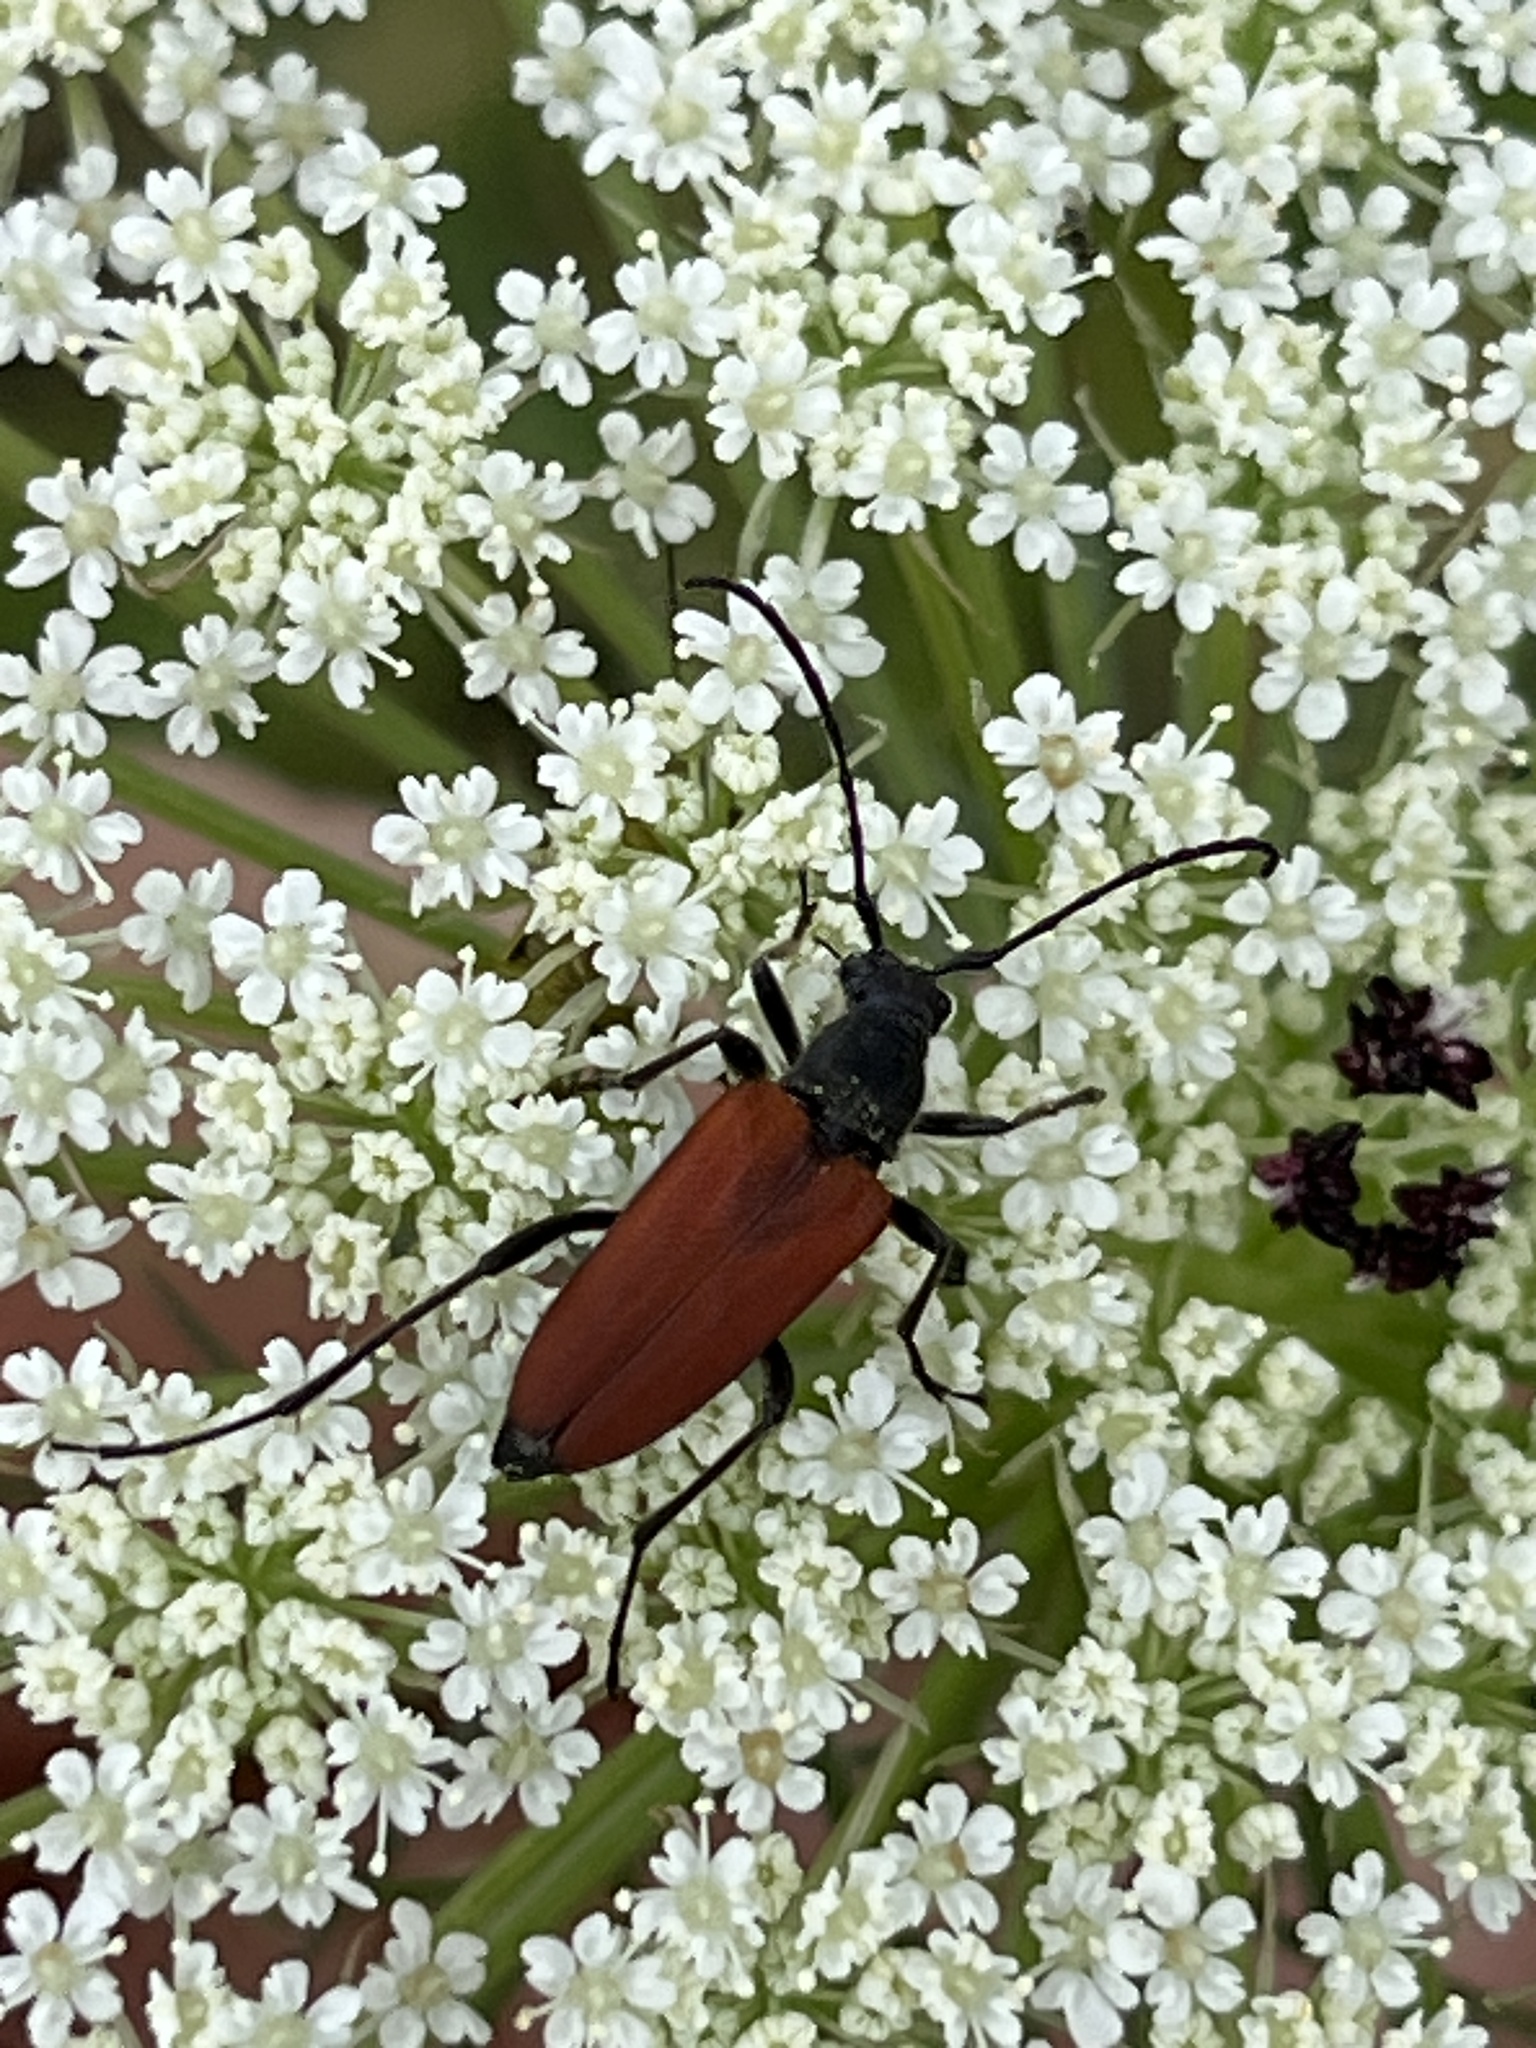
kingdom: Animalia
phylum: Arthropoda
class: Insecta
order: Coleoptera
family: Cerambycidae
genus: Anastrangalia
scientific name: Anastrangalia sanguinolenta
